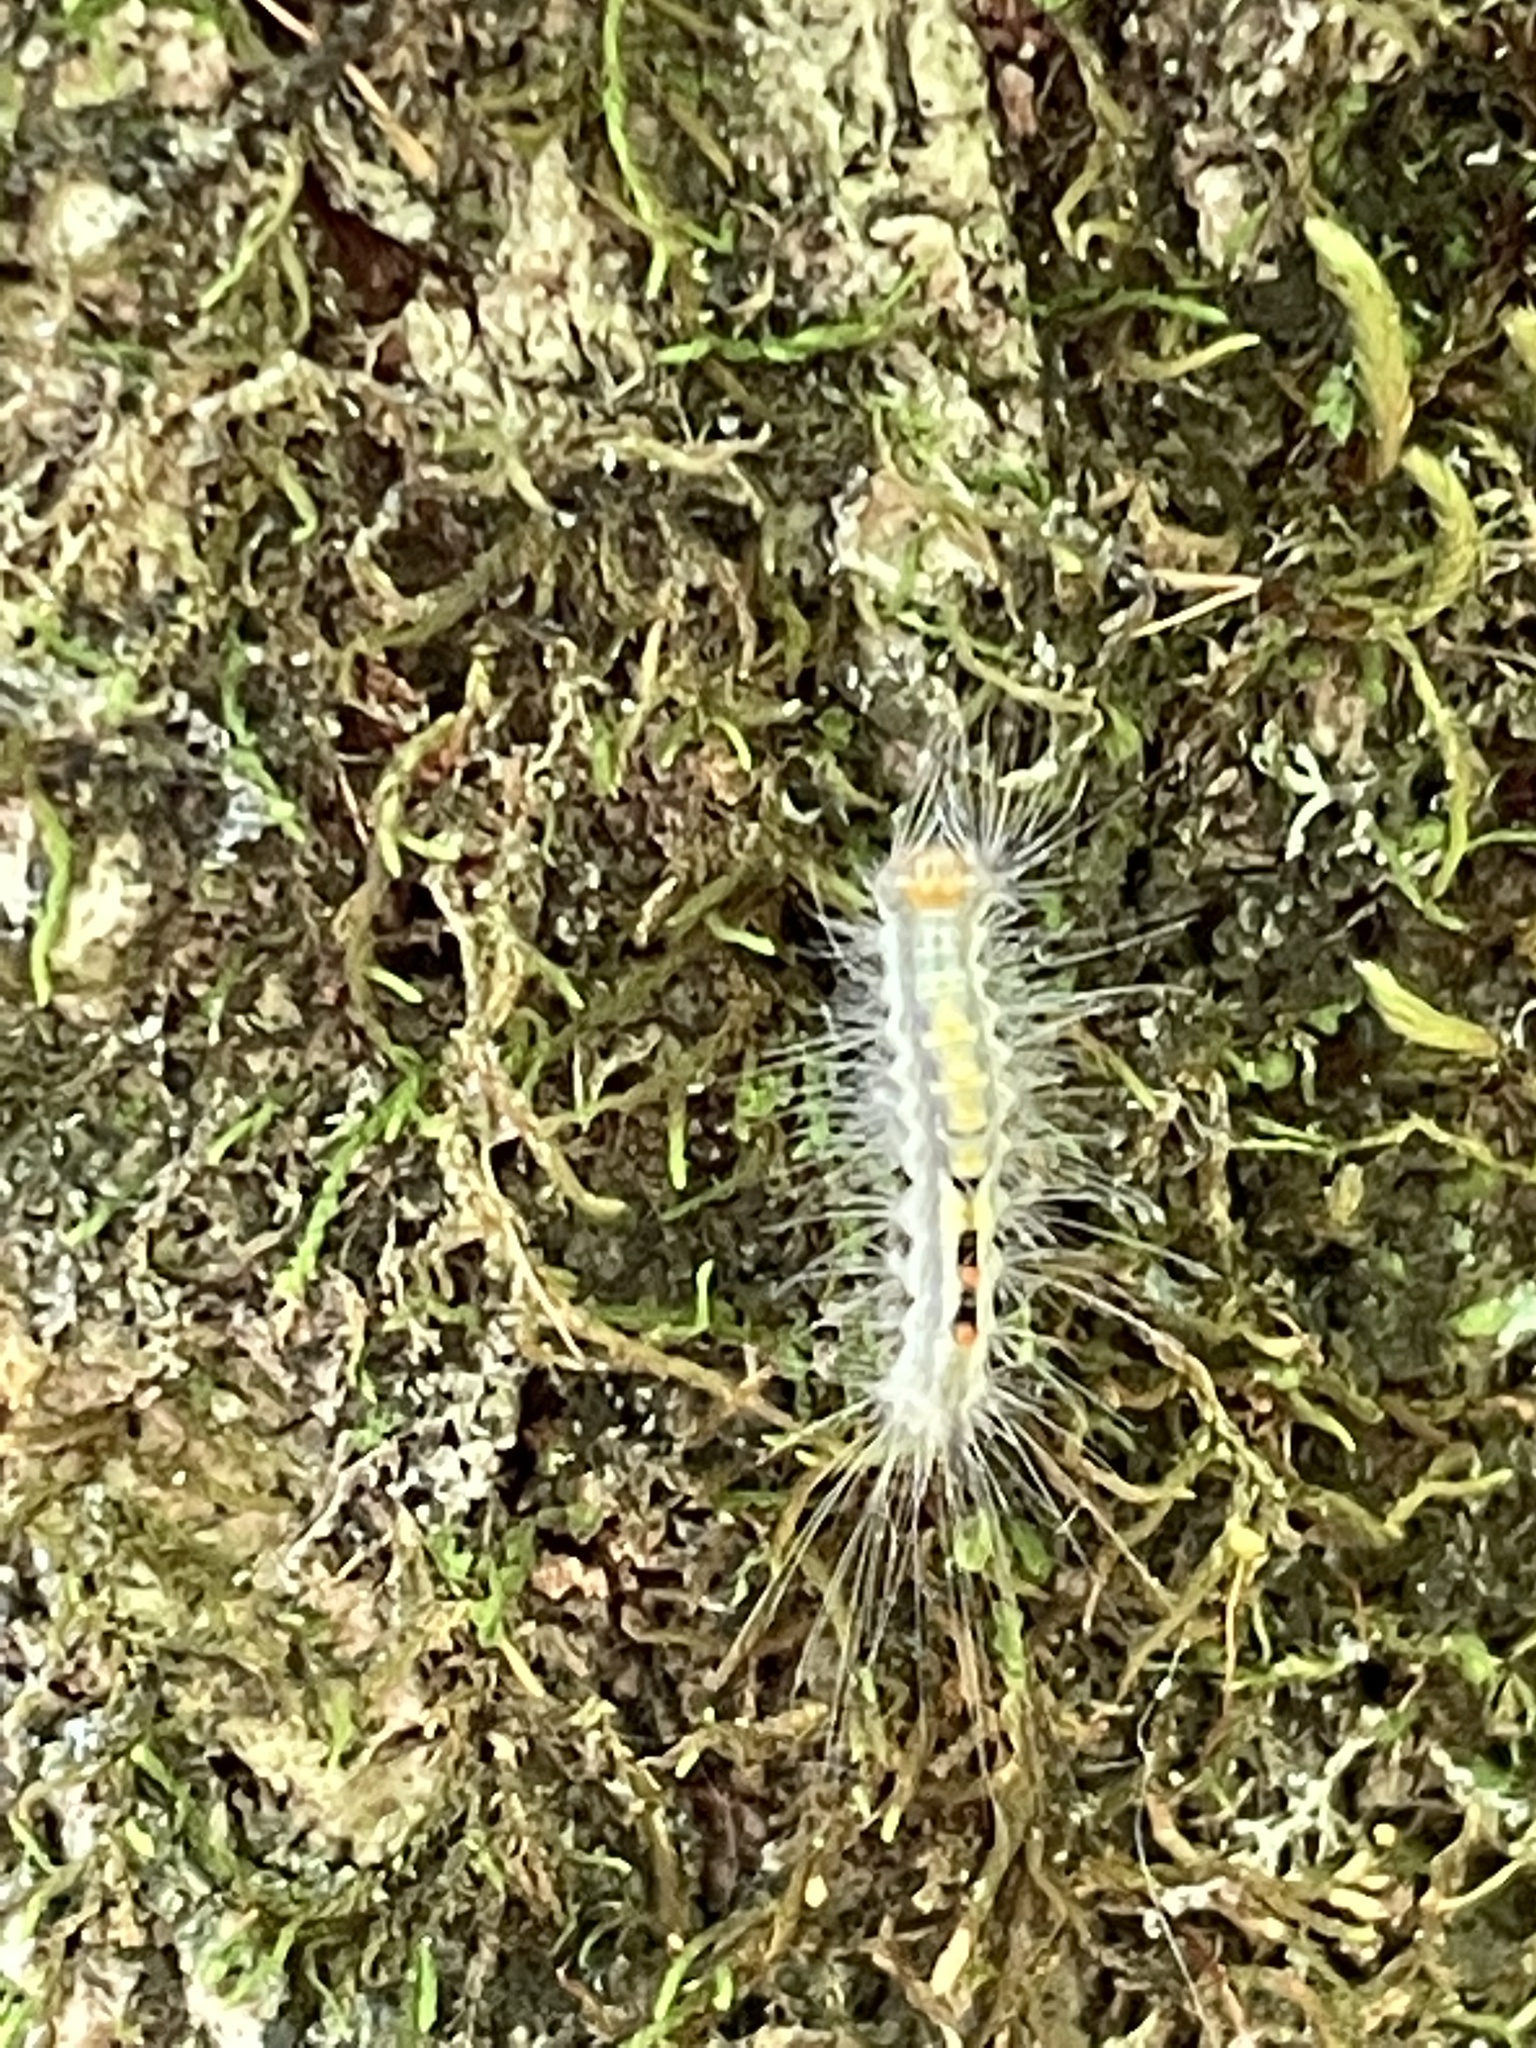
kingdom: Animalia
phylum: Arthropoda
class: Insecta
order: Lepidoptera
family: Erebidae
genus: Orgyia
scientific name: Orgyia leucostigma
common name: White-marked tussock moth
